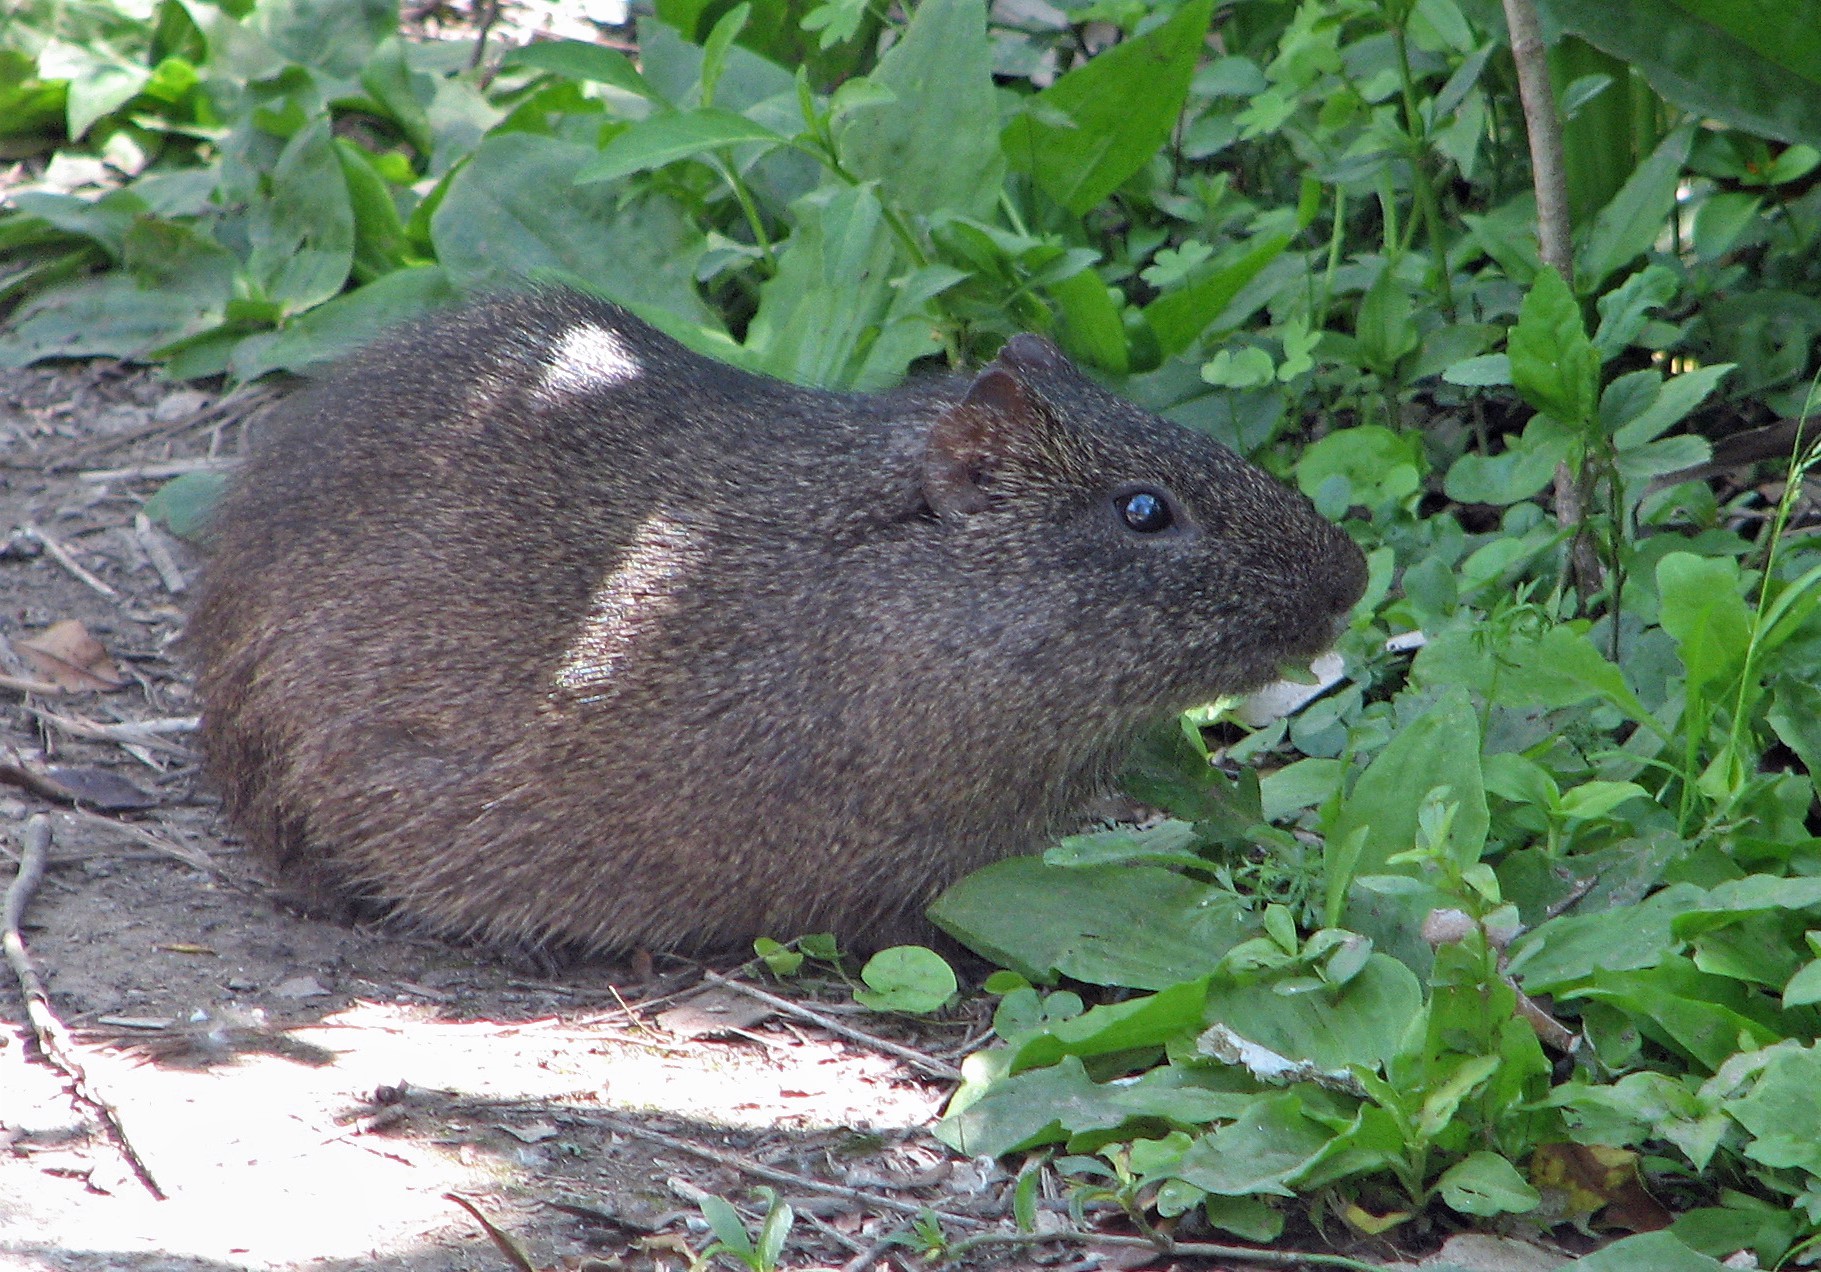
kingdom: Animalia
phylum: Chordata
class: Mammalia
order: Rodentia
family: Caviidae
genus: Cavia
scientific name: Cavia aperea
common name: Brazilian guinea pig
